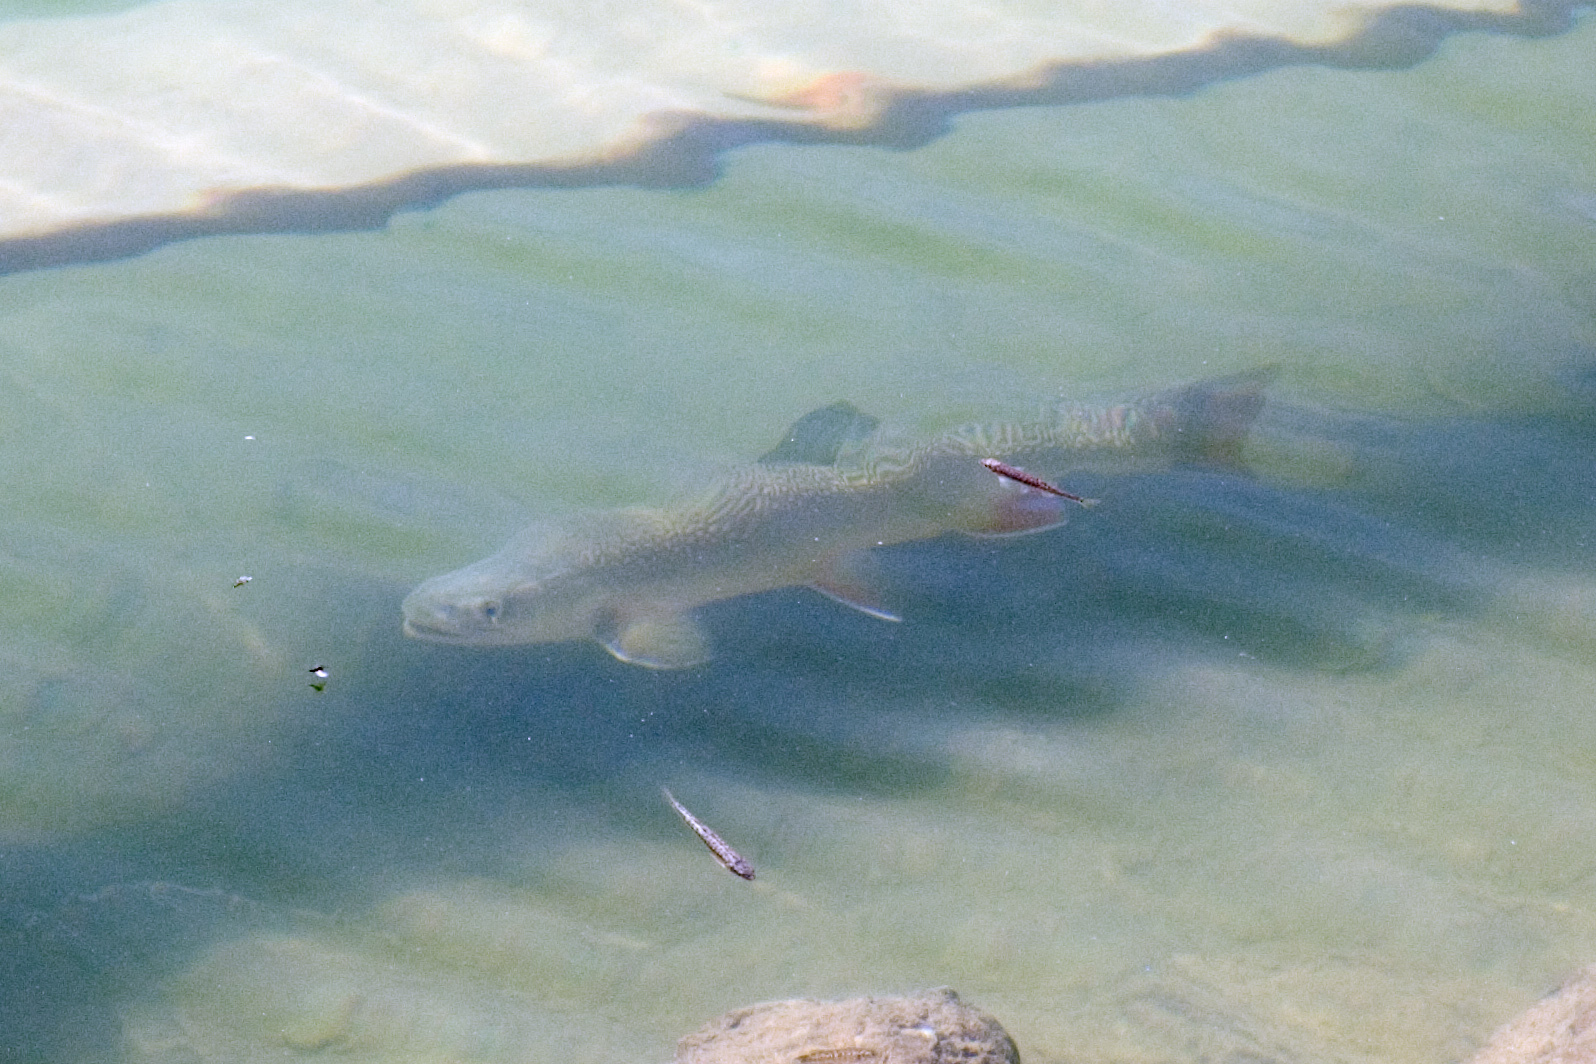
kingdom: Animalia
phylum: Chordata
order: Salmoniformes
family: Salmonidae
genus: Salvelinus
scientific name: Salvelinus fontinalis
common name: Brook trout
